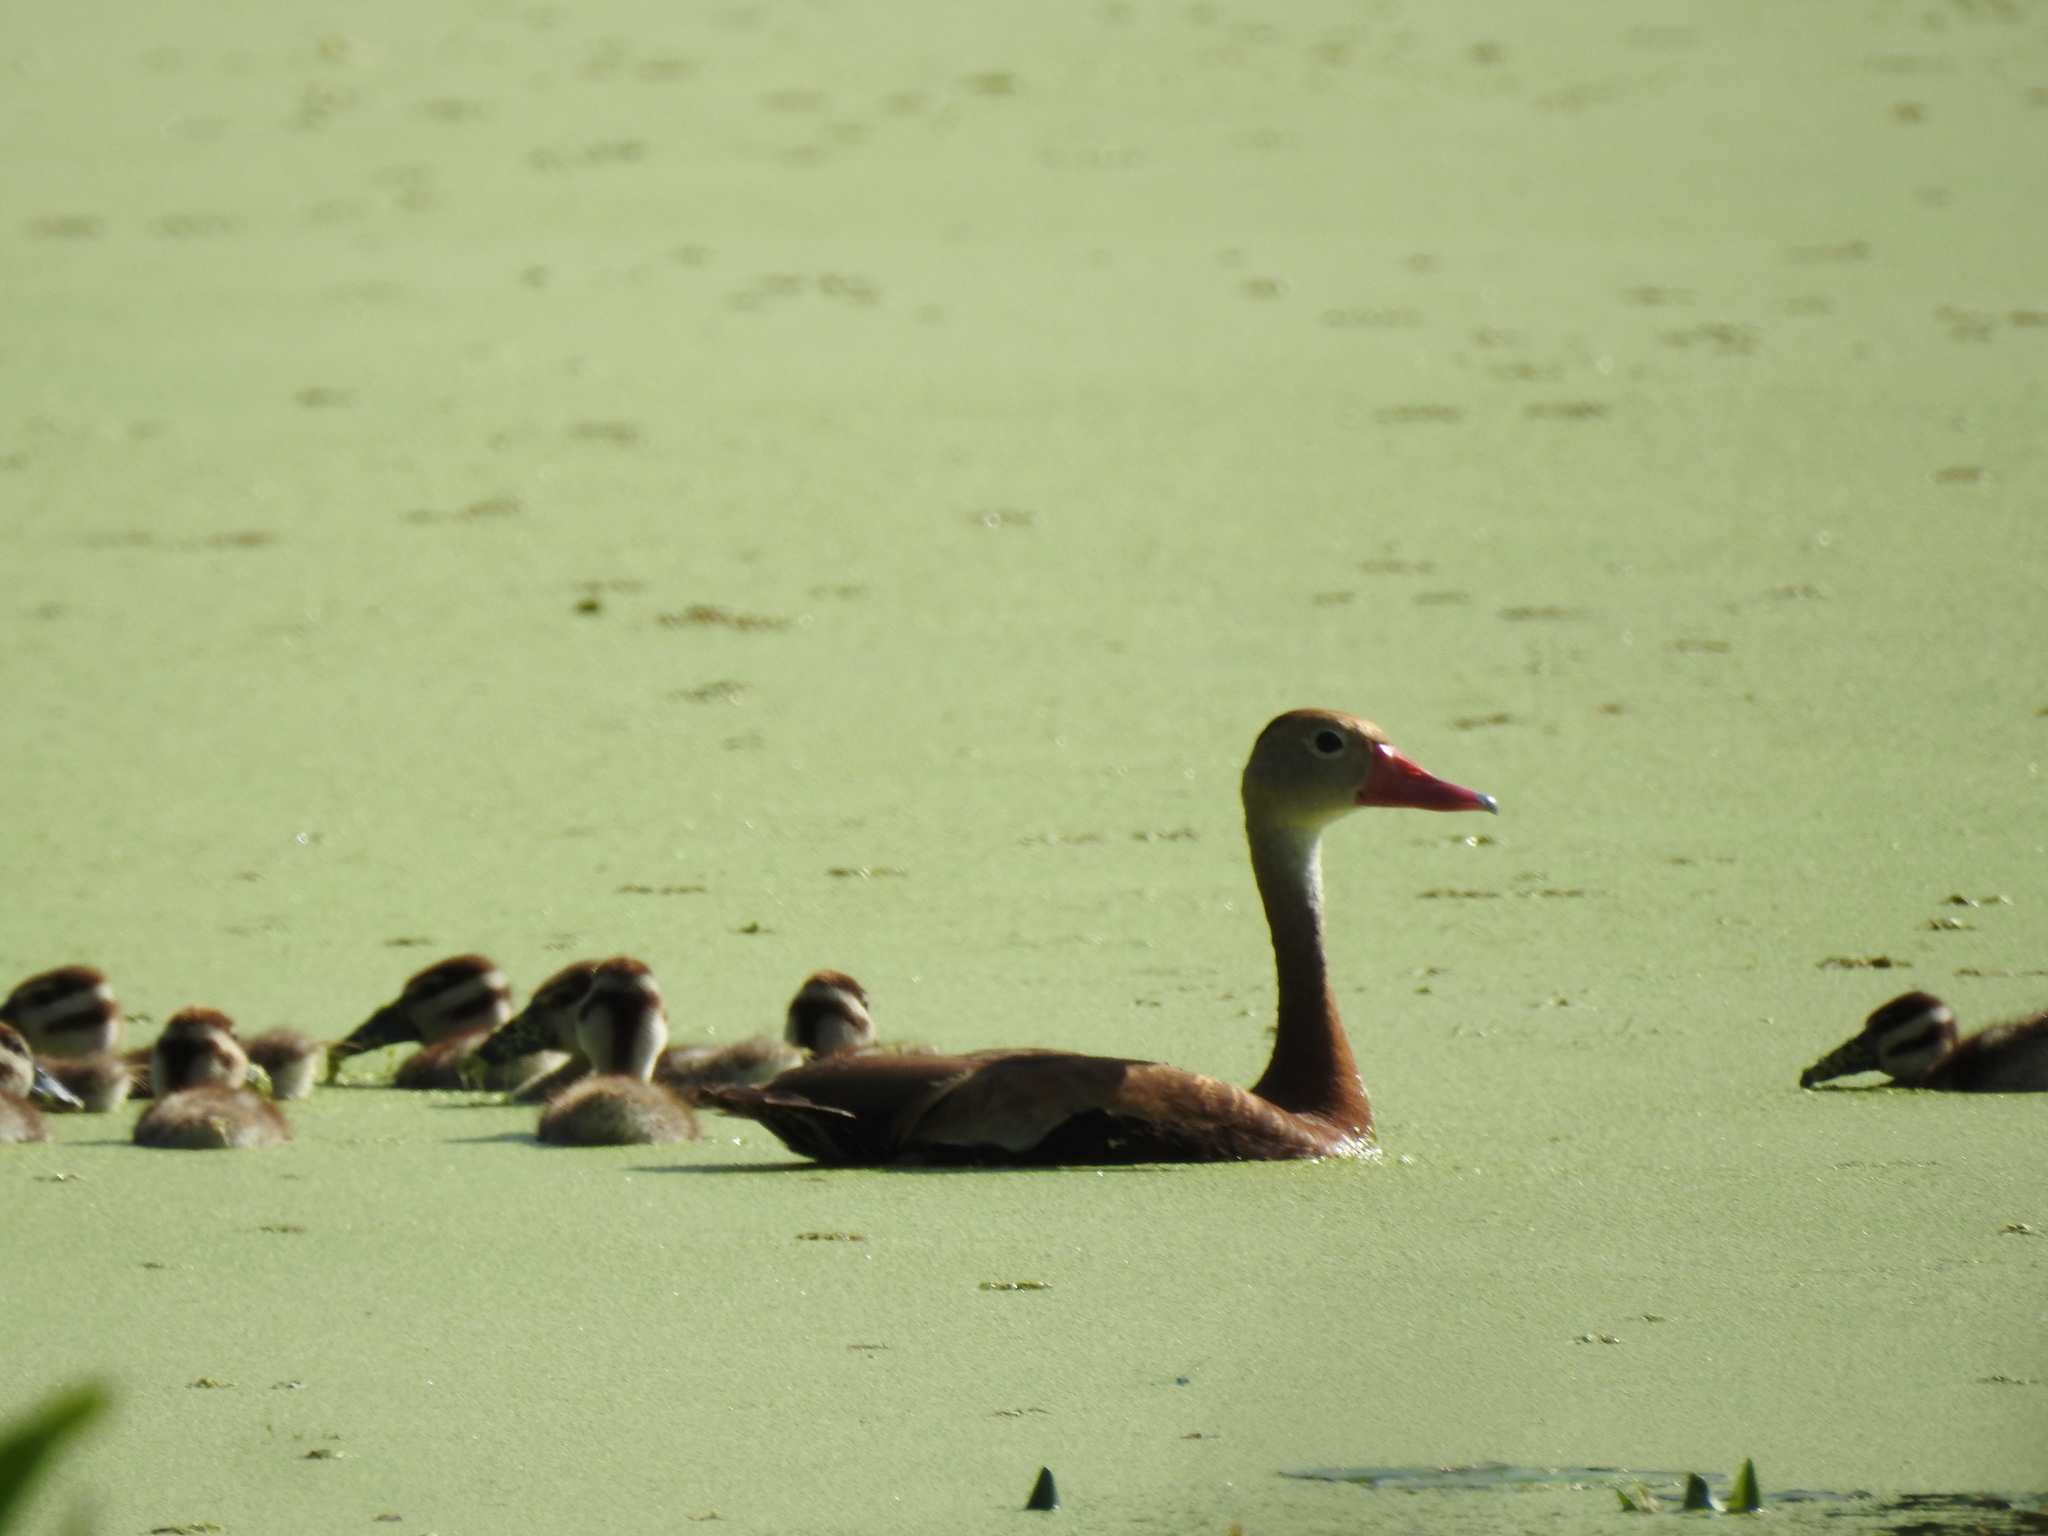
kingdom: Animalia
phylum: Chordata
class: Aves
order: Anseriformes
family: Anatidae
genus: Dendrocygna
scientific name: Dendrocygna autumnalis
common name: Black-bellied whistling duck
